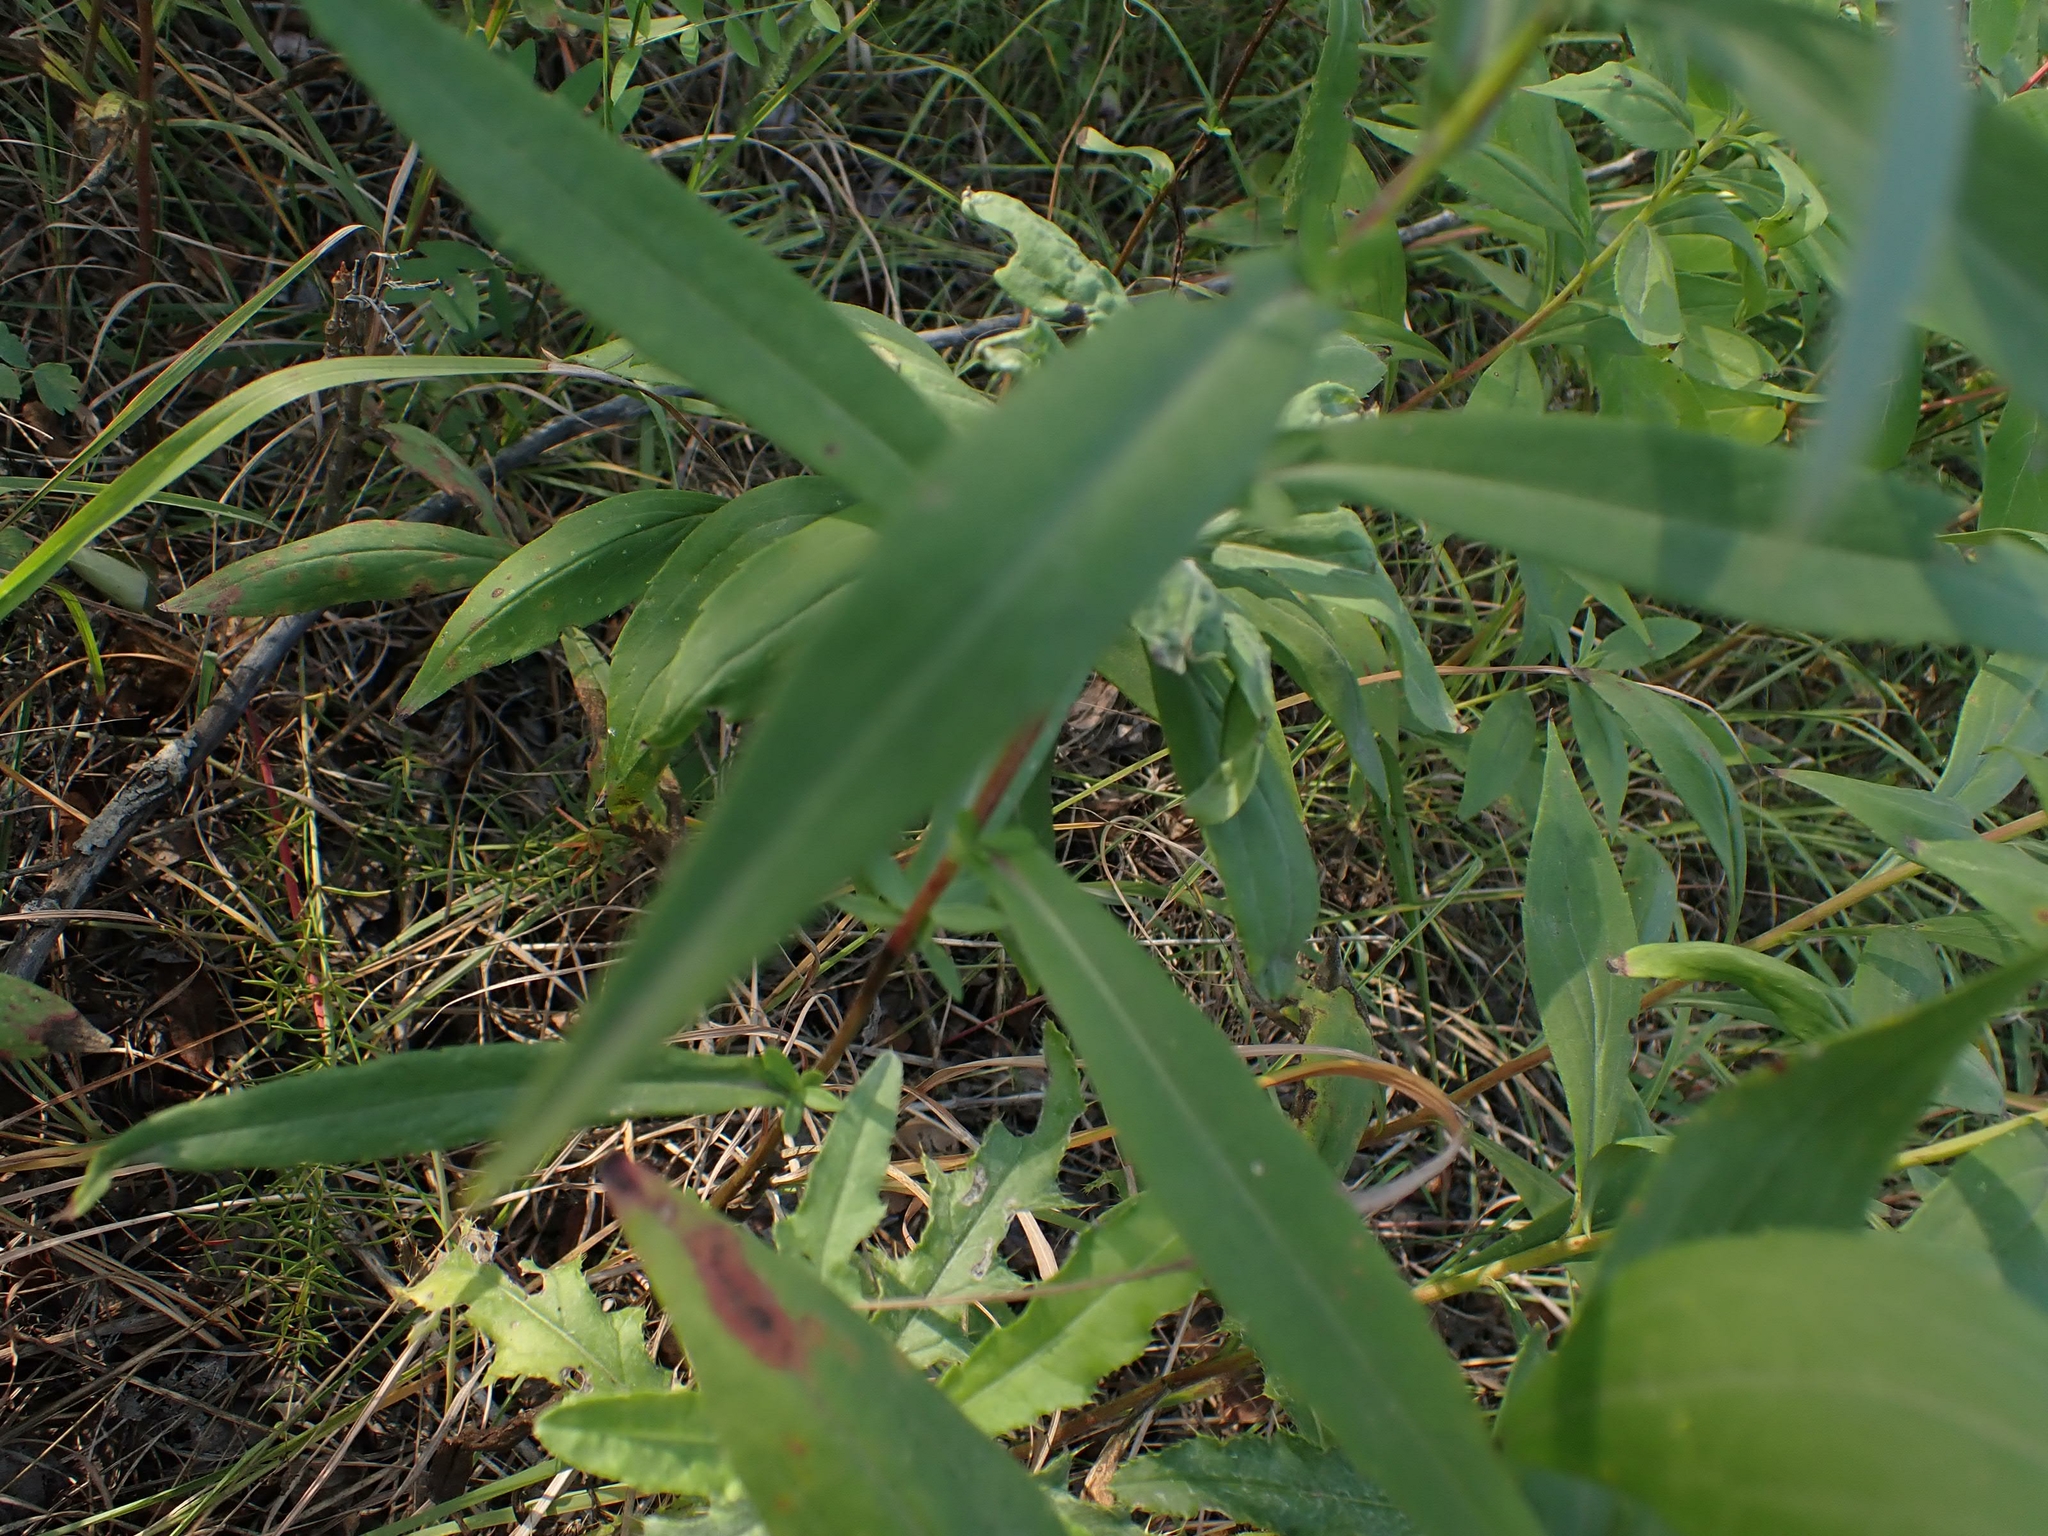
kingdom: Plantae
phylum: Tracheophyta
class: Magnoliopsida
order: Asterales
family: Asteraceae
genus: Symphyotrichum
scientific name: Symphyotrichum lanceolatum
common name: Panicled aster
